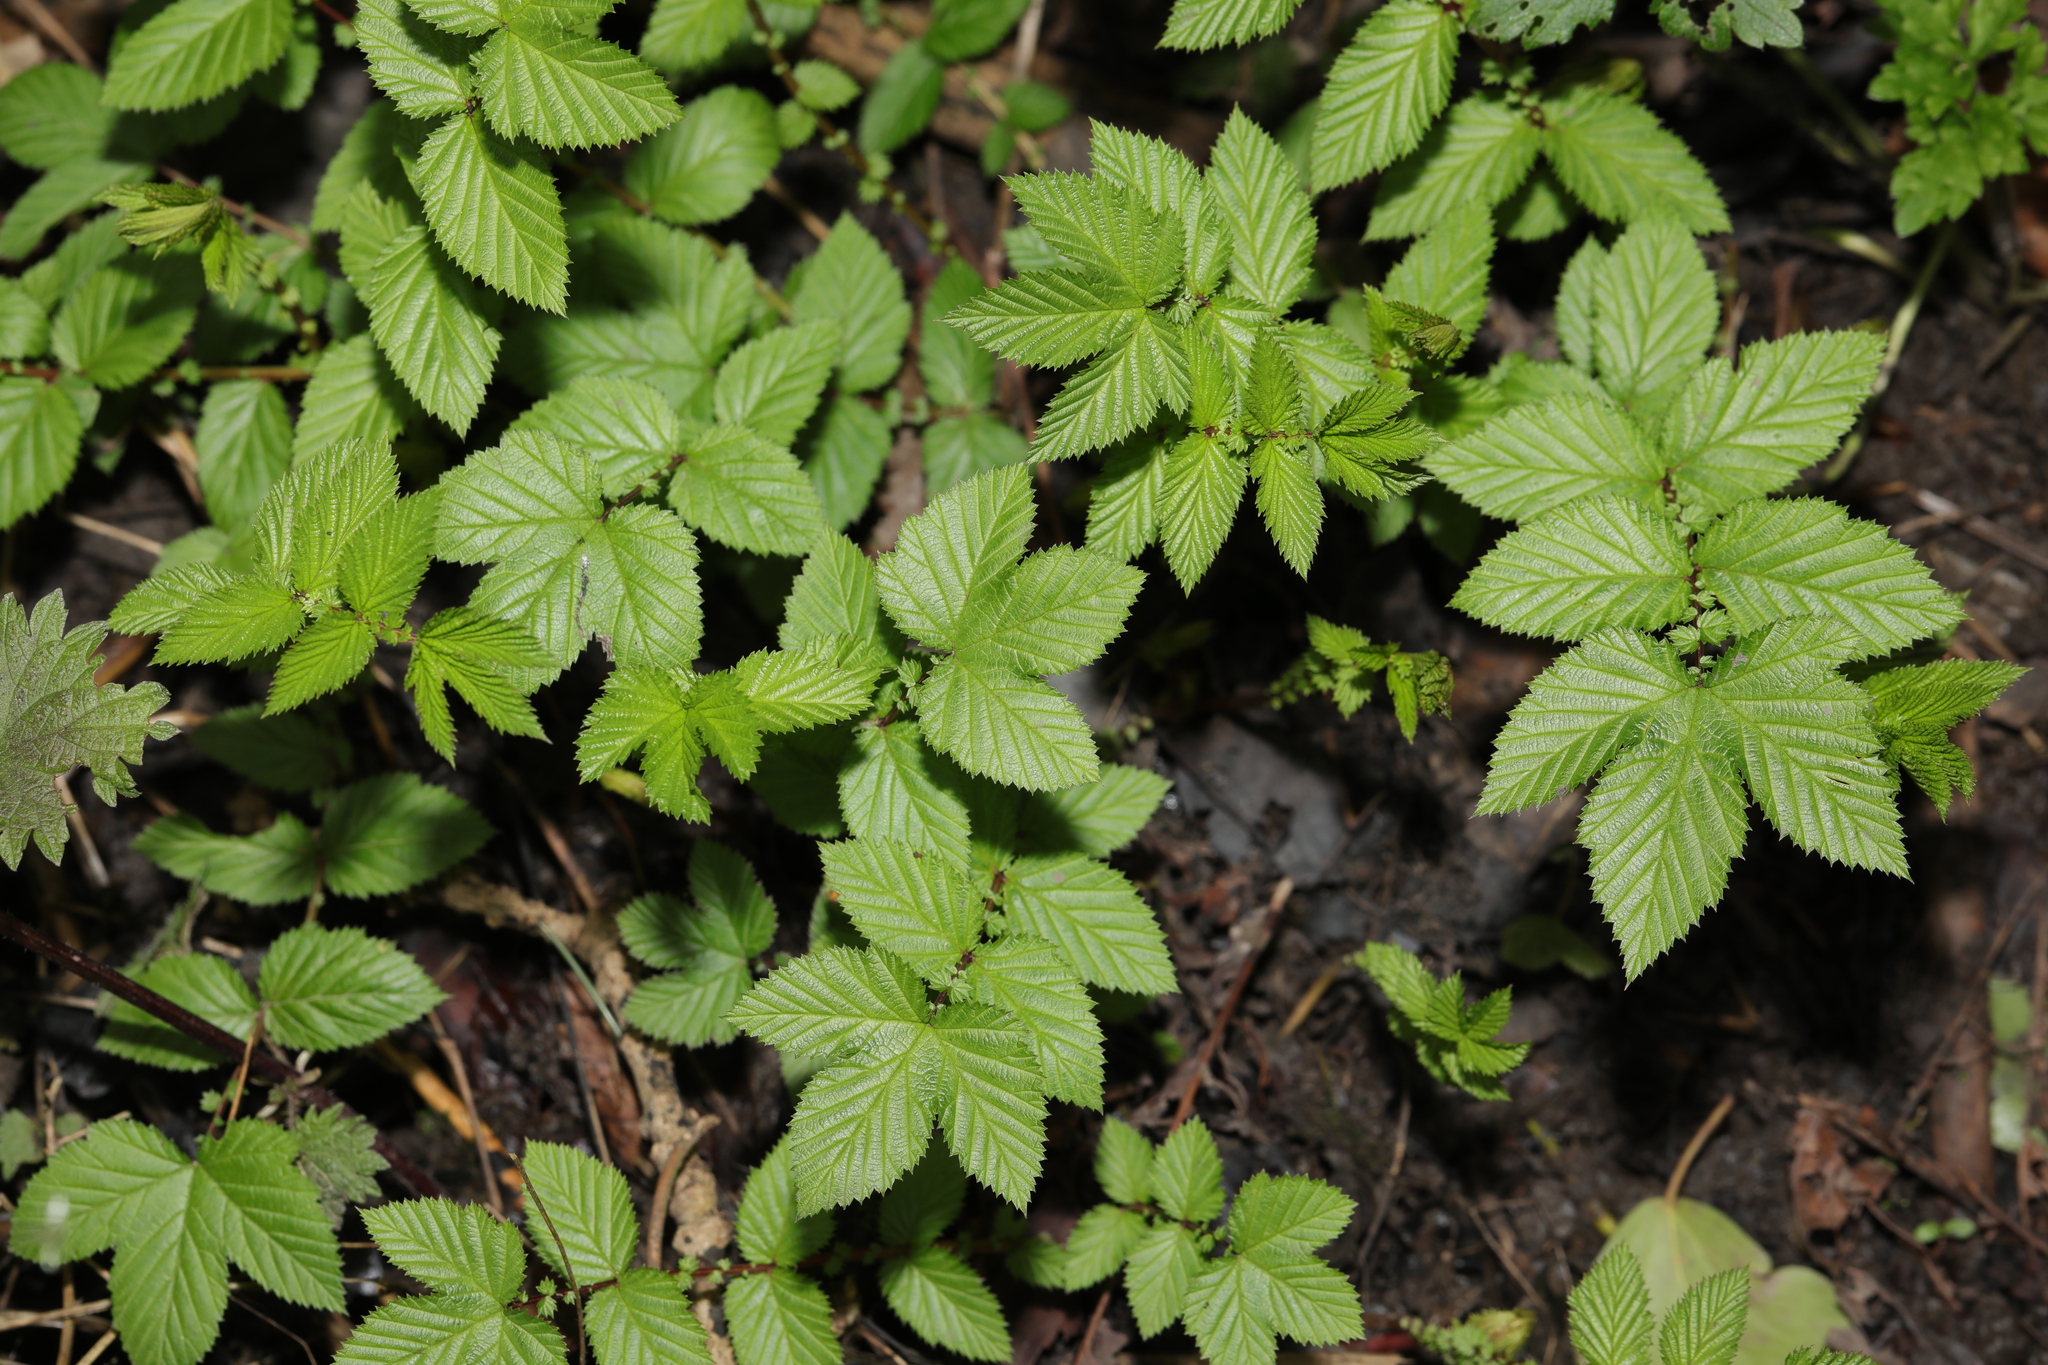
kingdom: Plantae
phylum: Tracheophyta
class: Magnoliopsida
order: Rosales
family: Rosaceae
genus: Filipendula
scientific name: Filipendula ulmaria
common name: Meadowsweet
